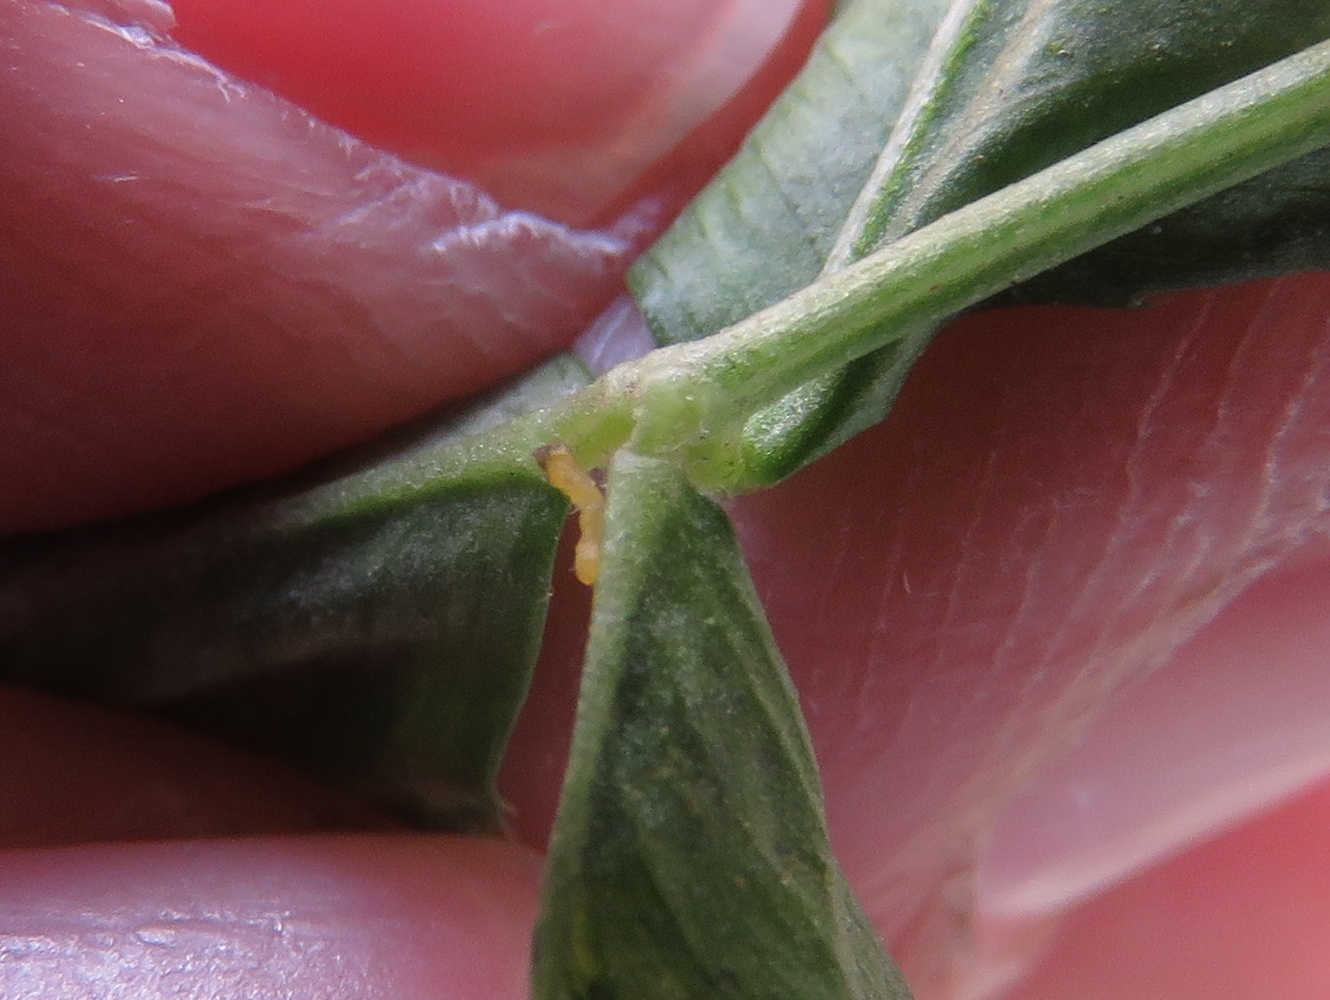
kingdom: Animalia
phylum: Arthropoda
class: Insecta
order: Lepidoptera
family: Gracillariidae
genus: Porphyrosela
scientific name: Porphyrosela minuta
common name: Leaf miner moth
